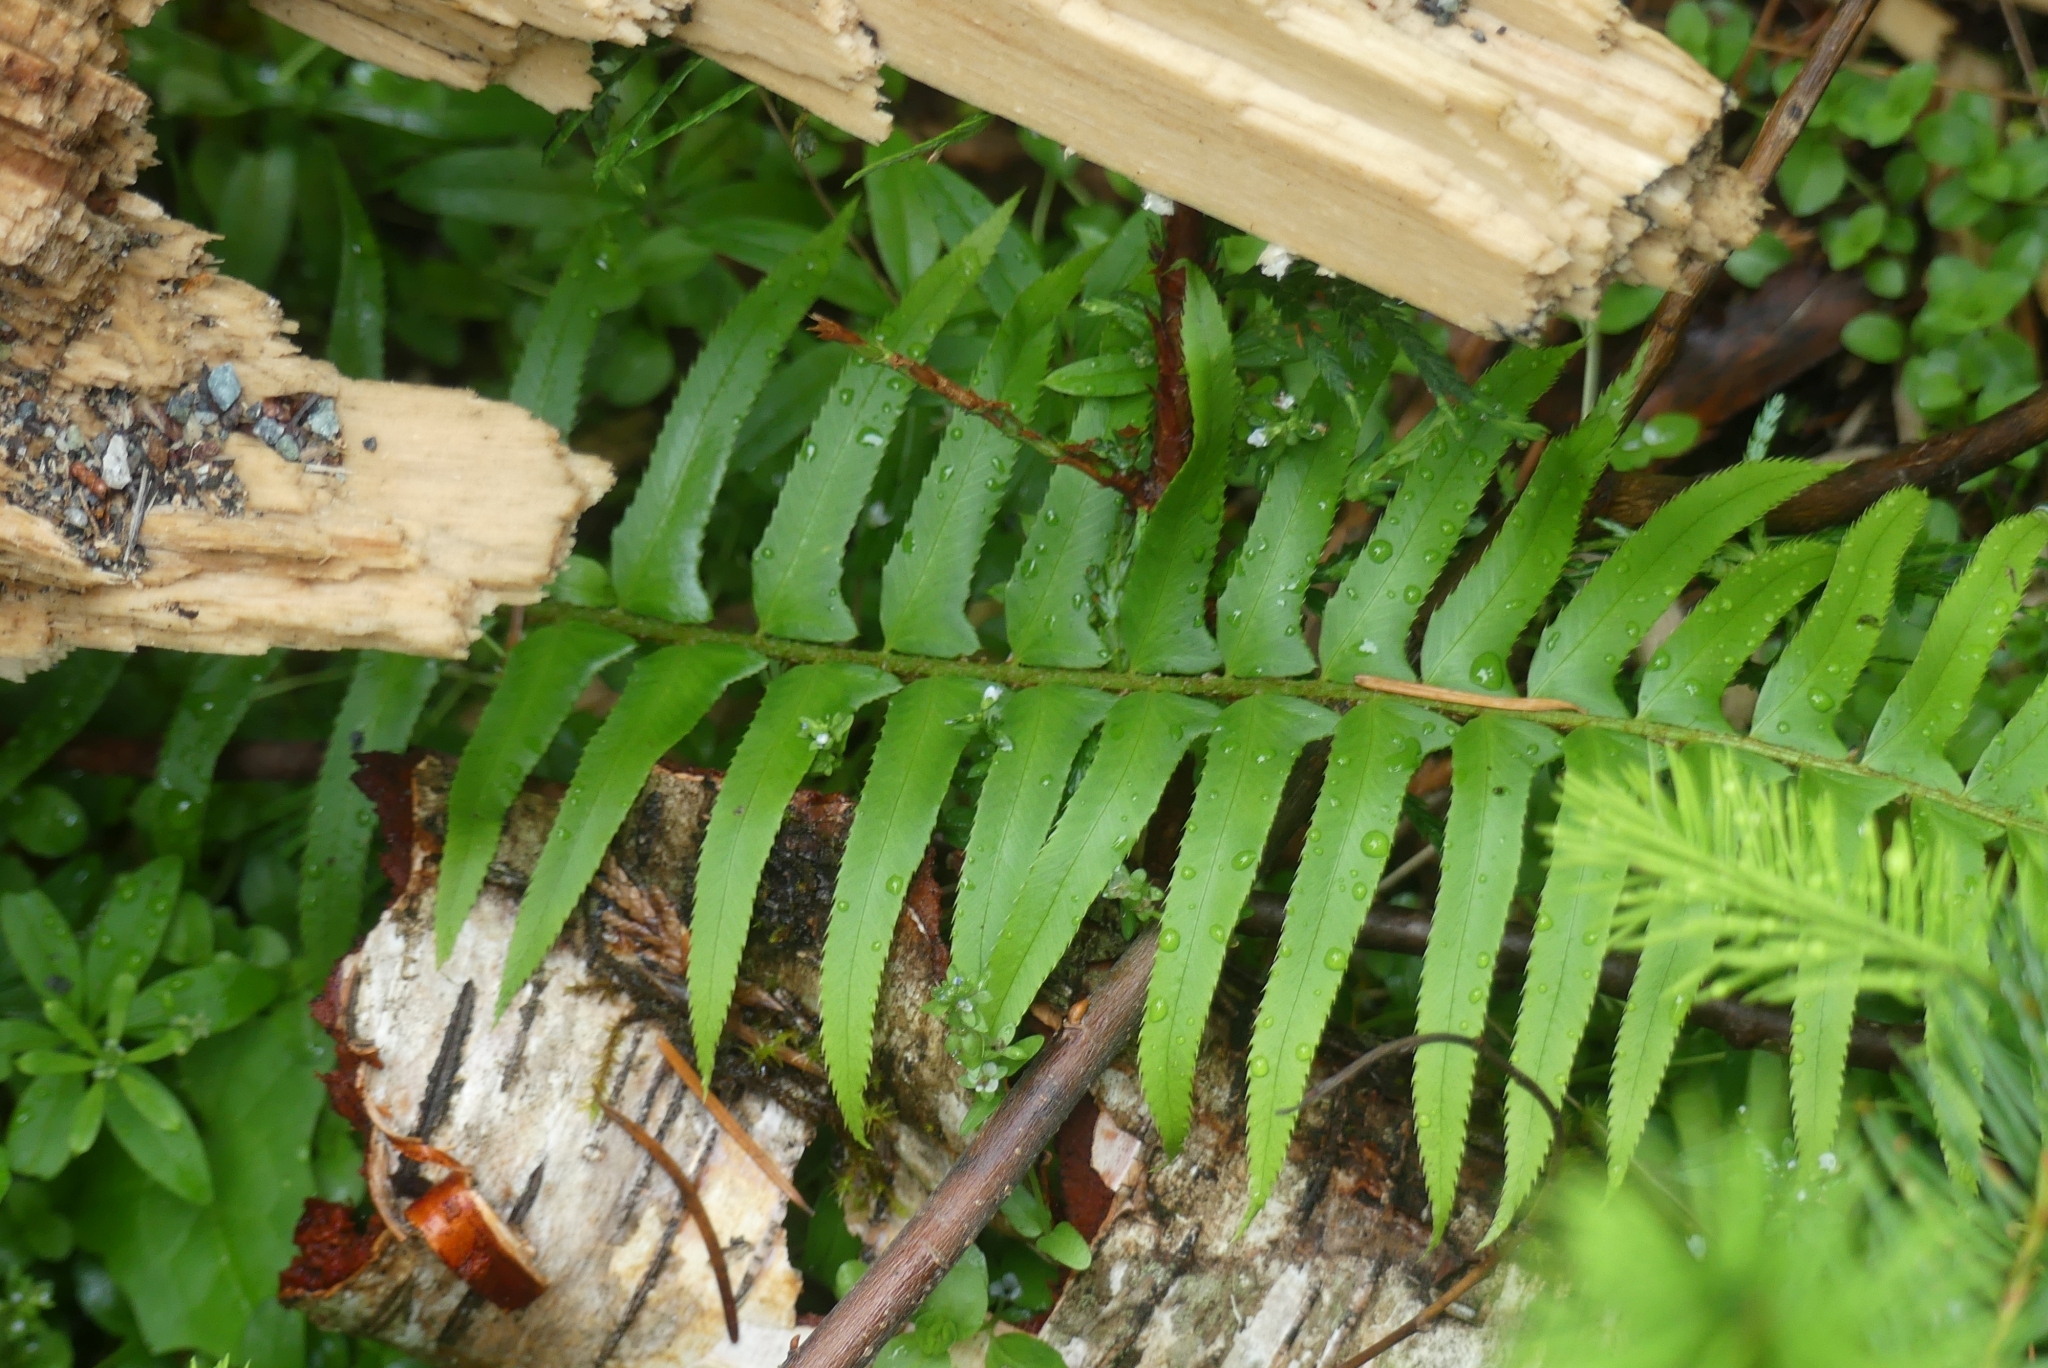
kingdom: Plantae
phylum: Tracheophyta
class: Polypodiopsida
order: Polypodiales
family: Dryopteridaceae
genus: Polystichum
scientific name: Polystichum munitum
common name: Western sword-fern
